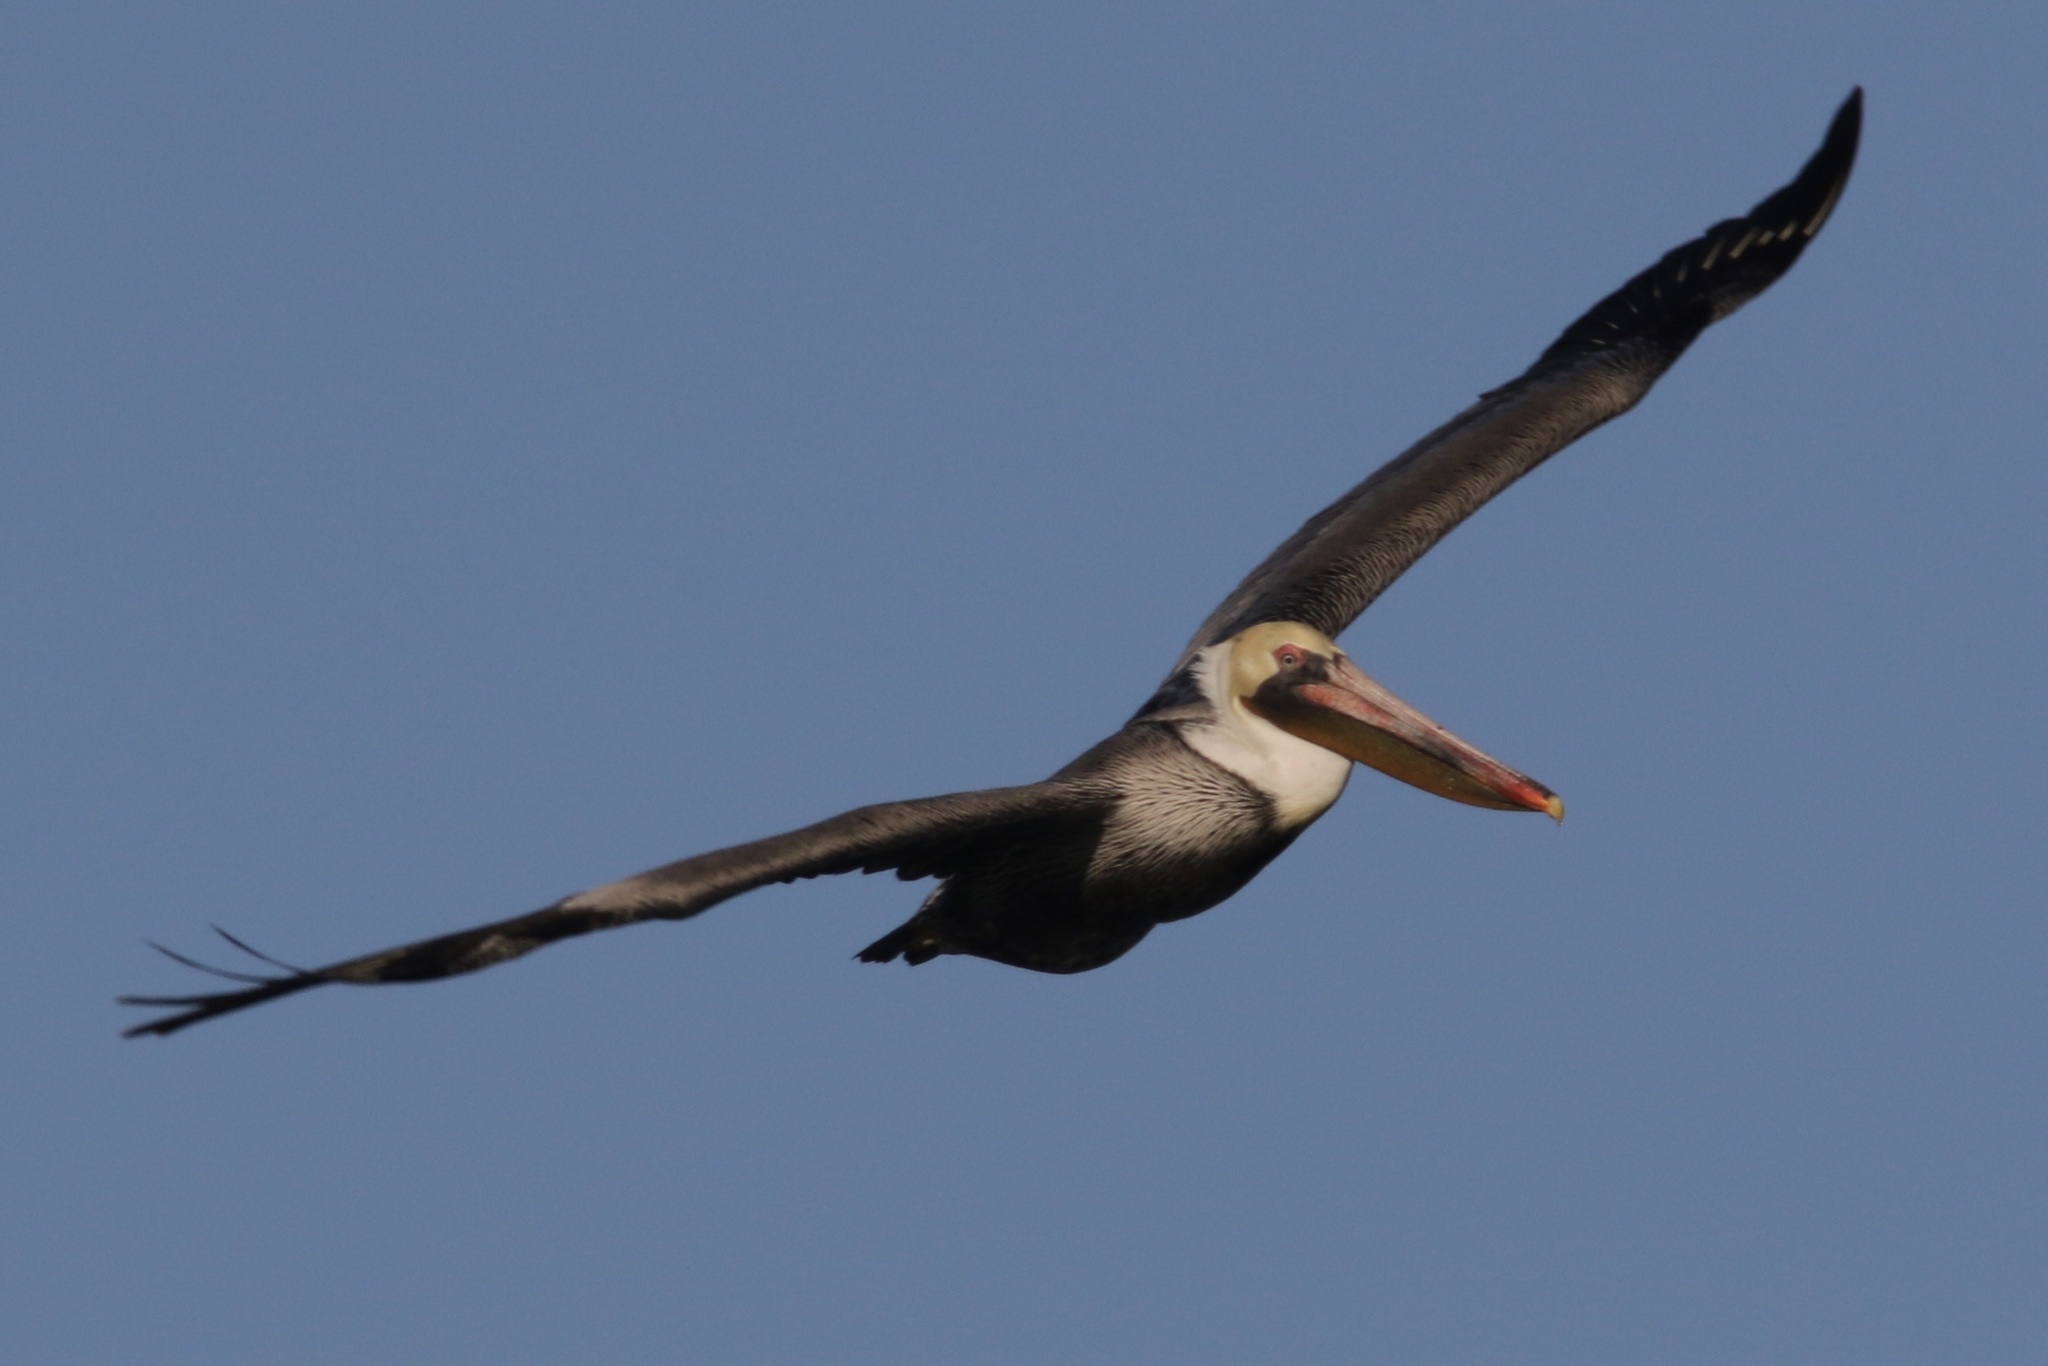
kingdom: Animalia
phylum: Chordata
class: Aves
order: Pelecaniformes
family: Pelecanidae
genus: Pelecanus
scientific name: Pelecanus occidentalis
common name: Brown pelican
